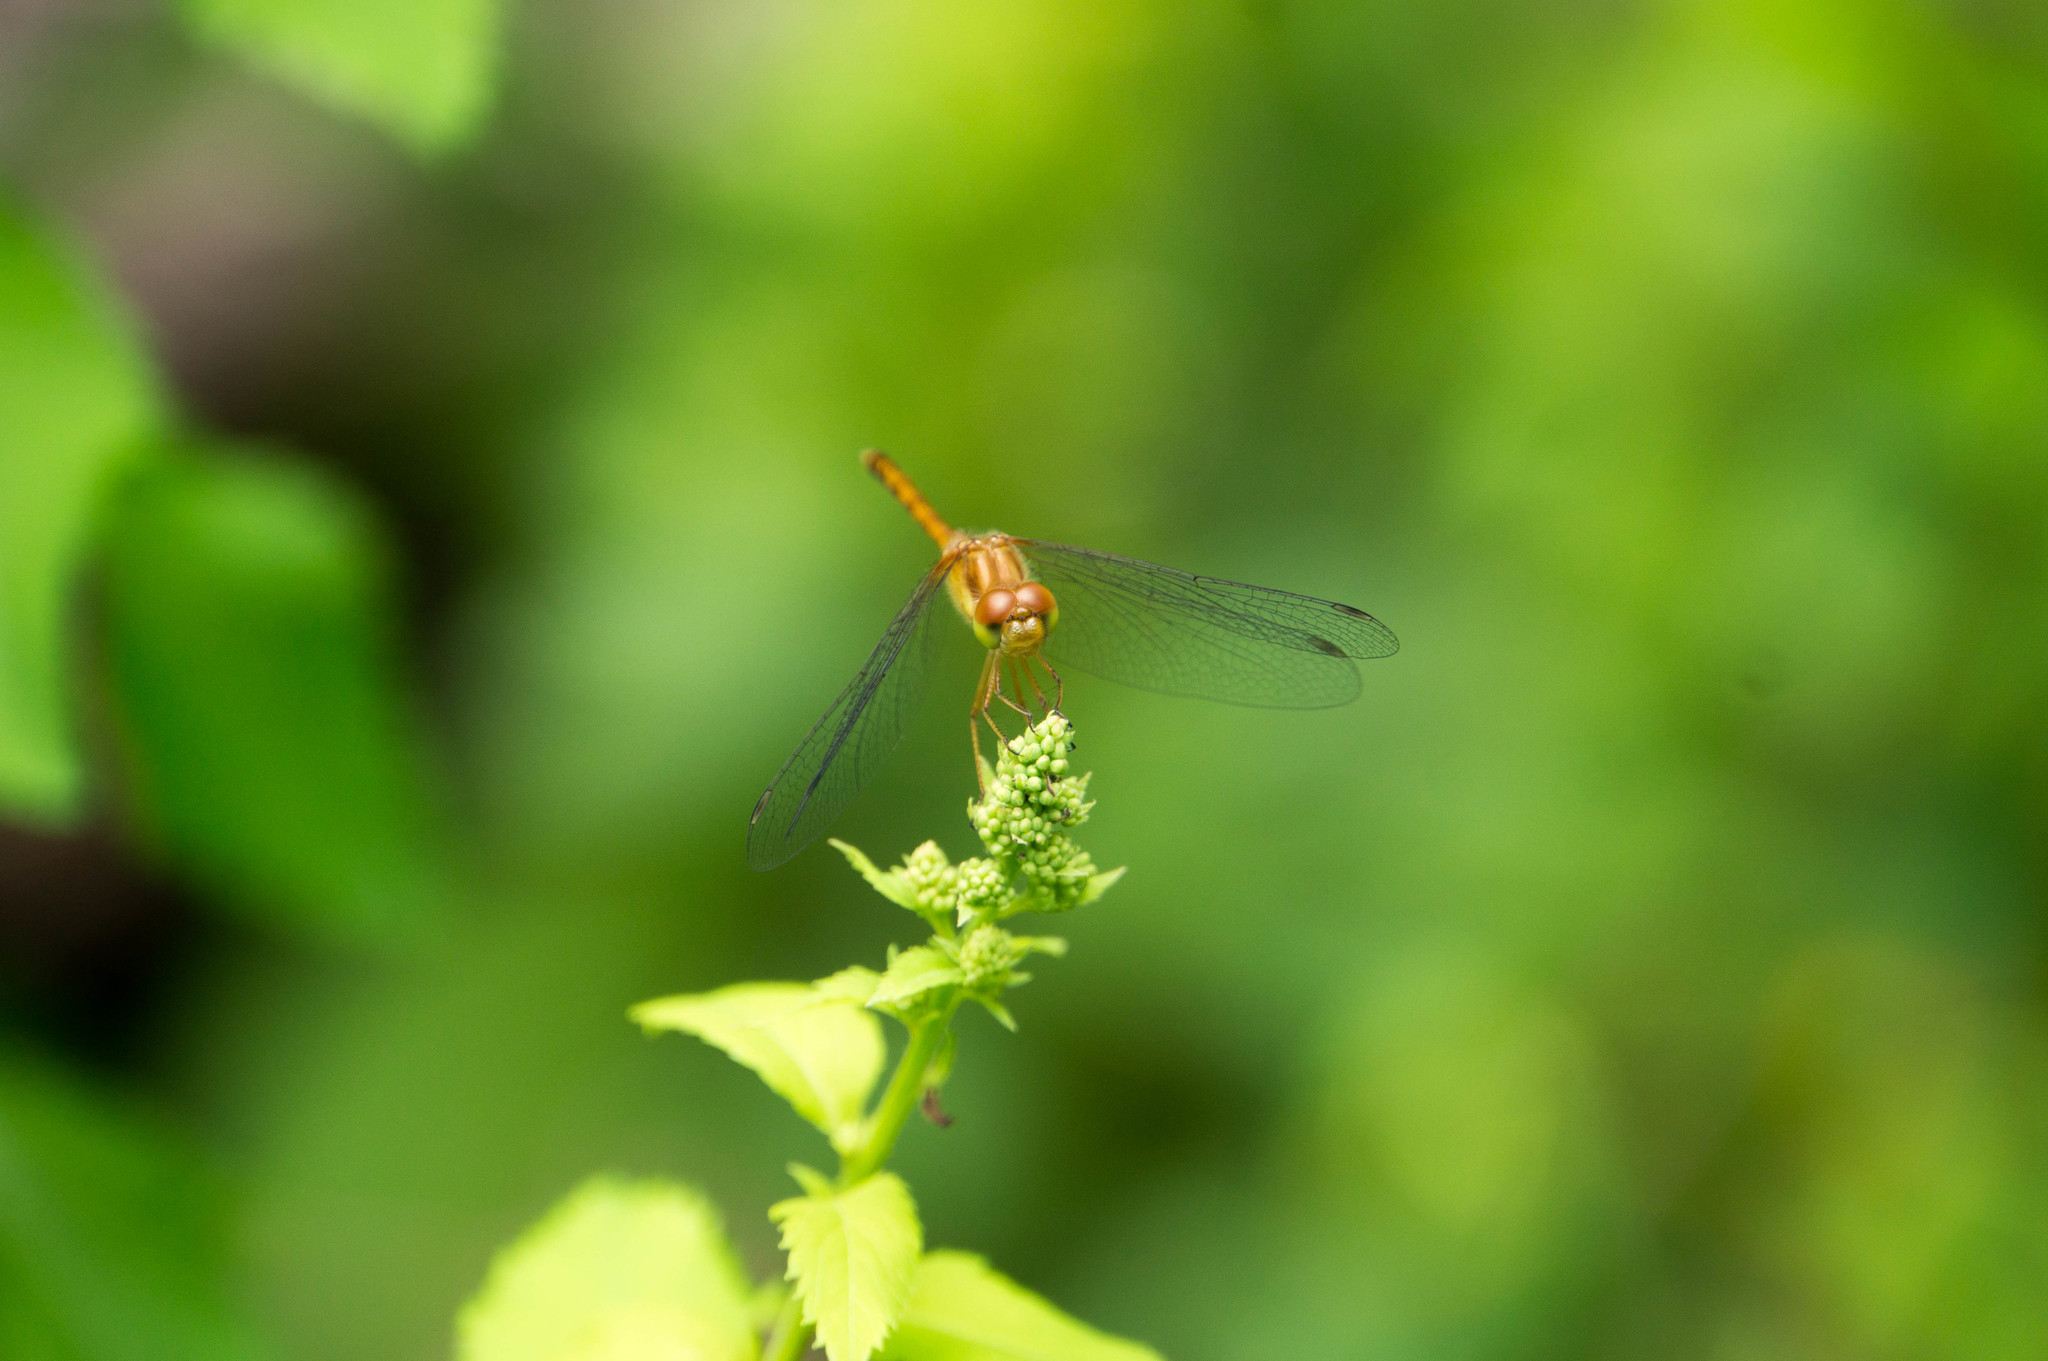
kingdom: Animalia
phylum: Arthropoda
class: Insecta
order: Odonata
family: Libellulidae
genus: Sympetrum
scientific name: Sympetrum vicinum
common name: Autumn meadowhawk
